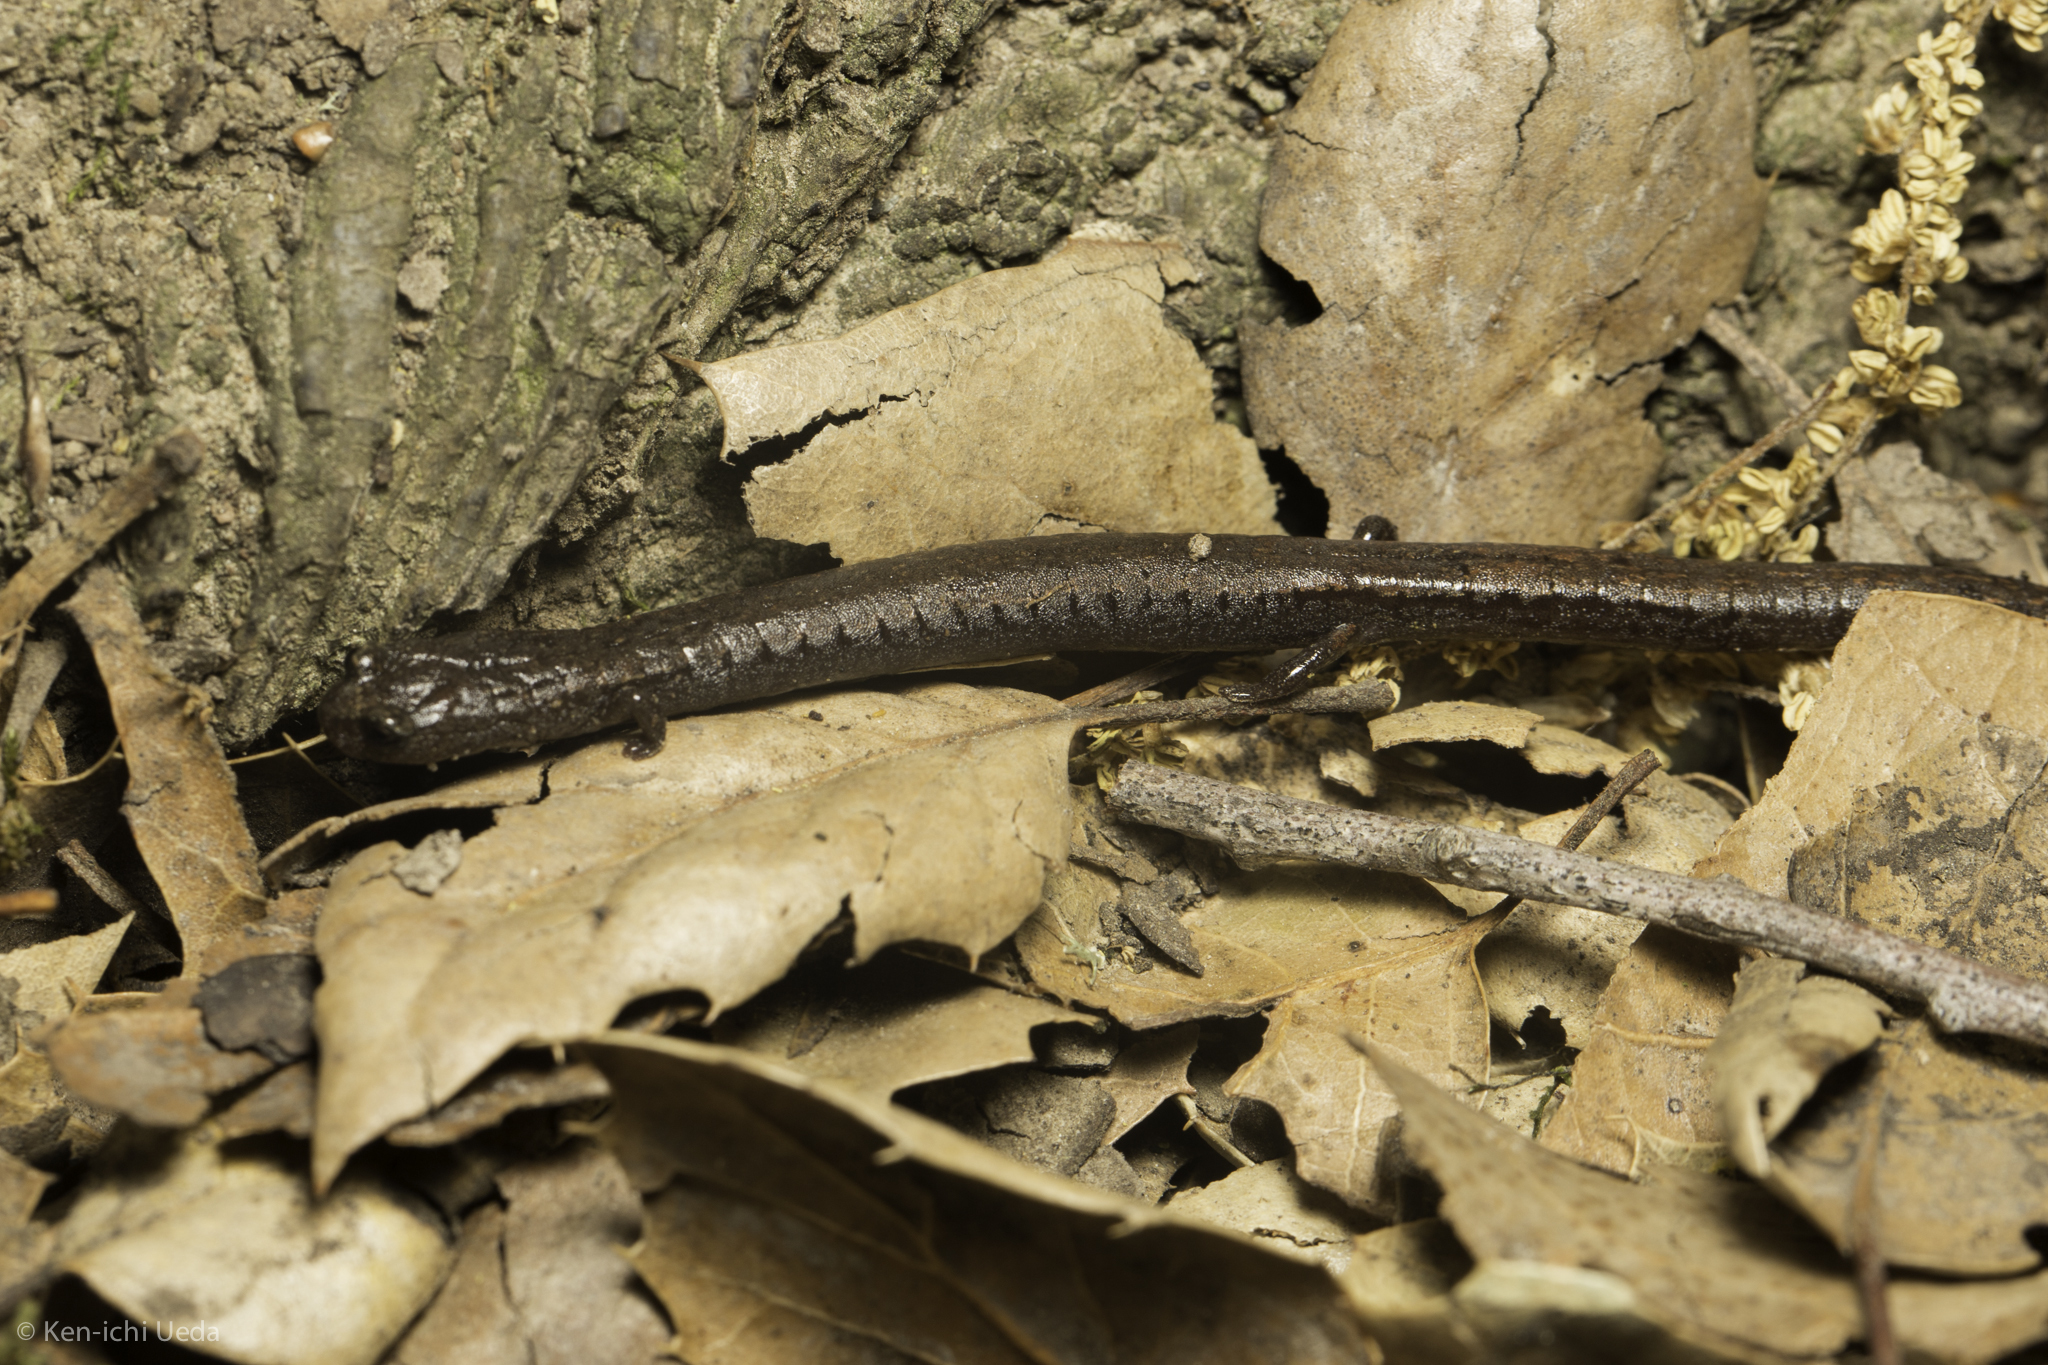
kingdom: Animalia
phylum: Chordata
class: Amphibia
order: Caudata
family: Plethodontidae
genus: Batrachoseps
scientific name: Batrachoseps attenuatus
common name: California slender salamander
